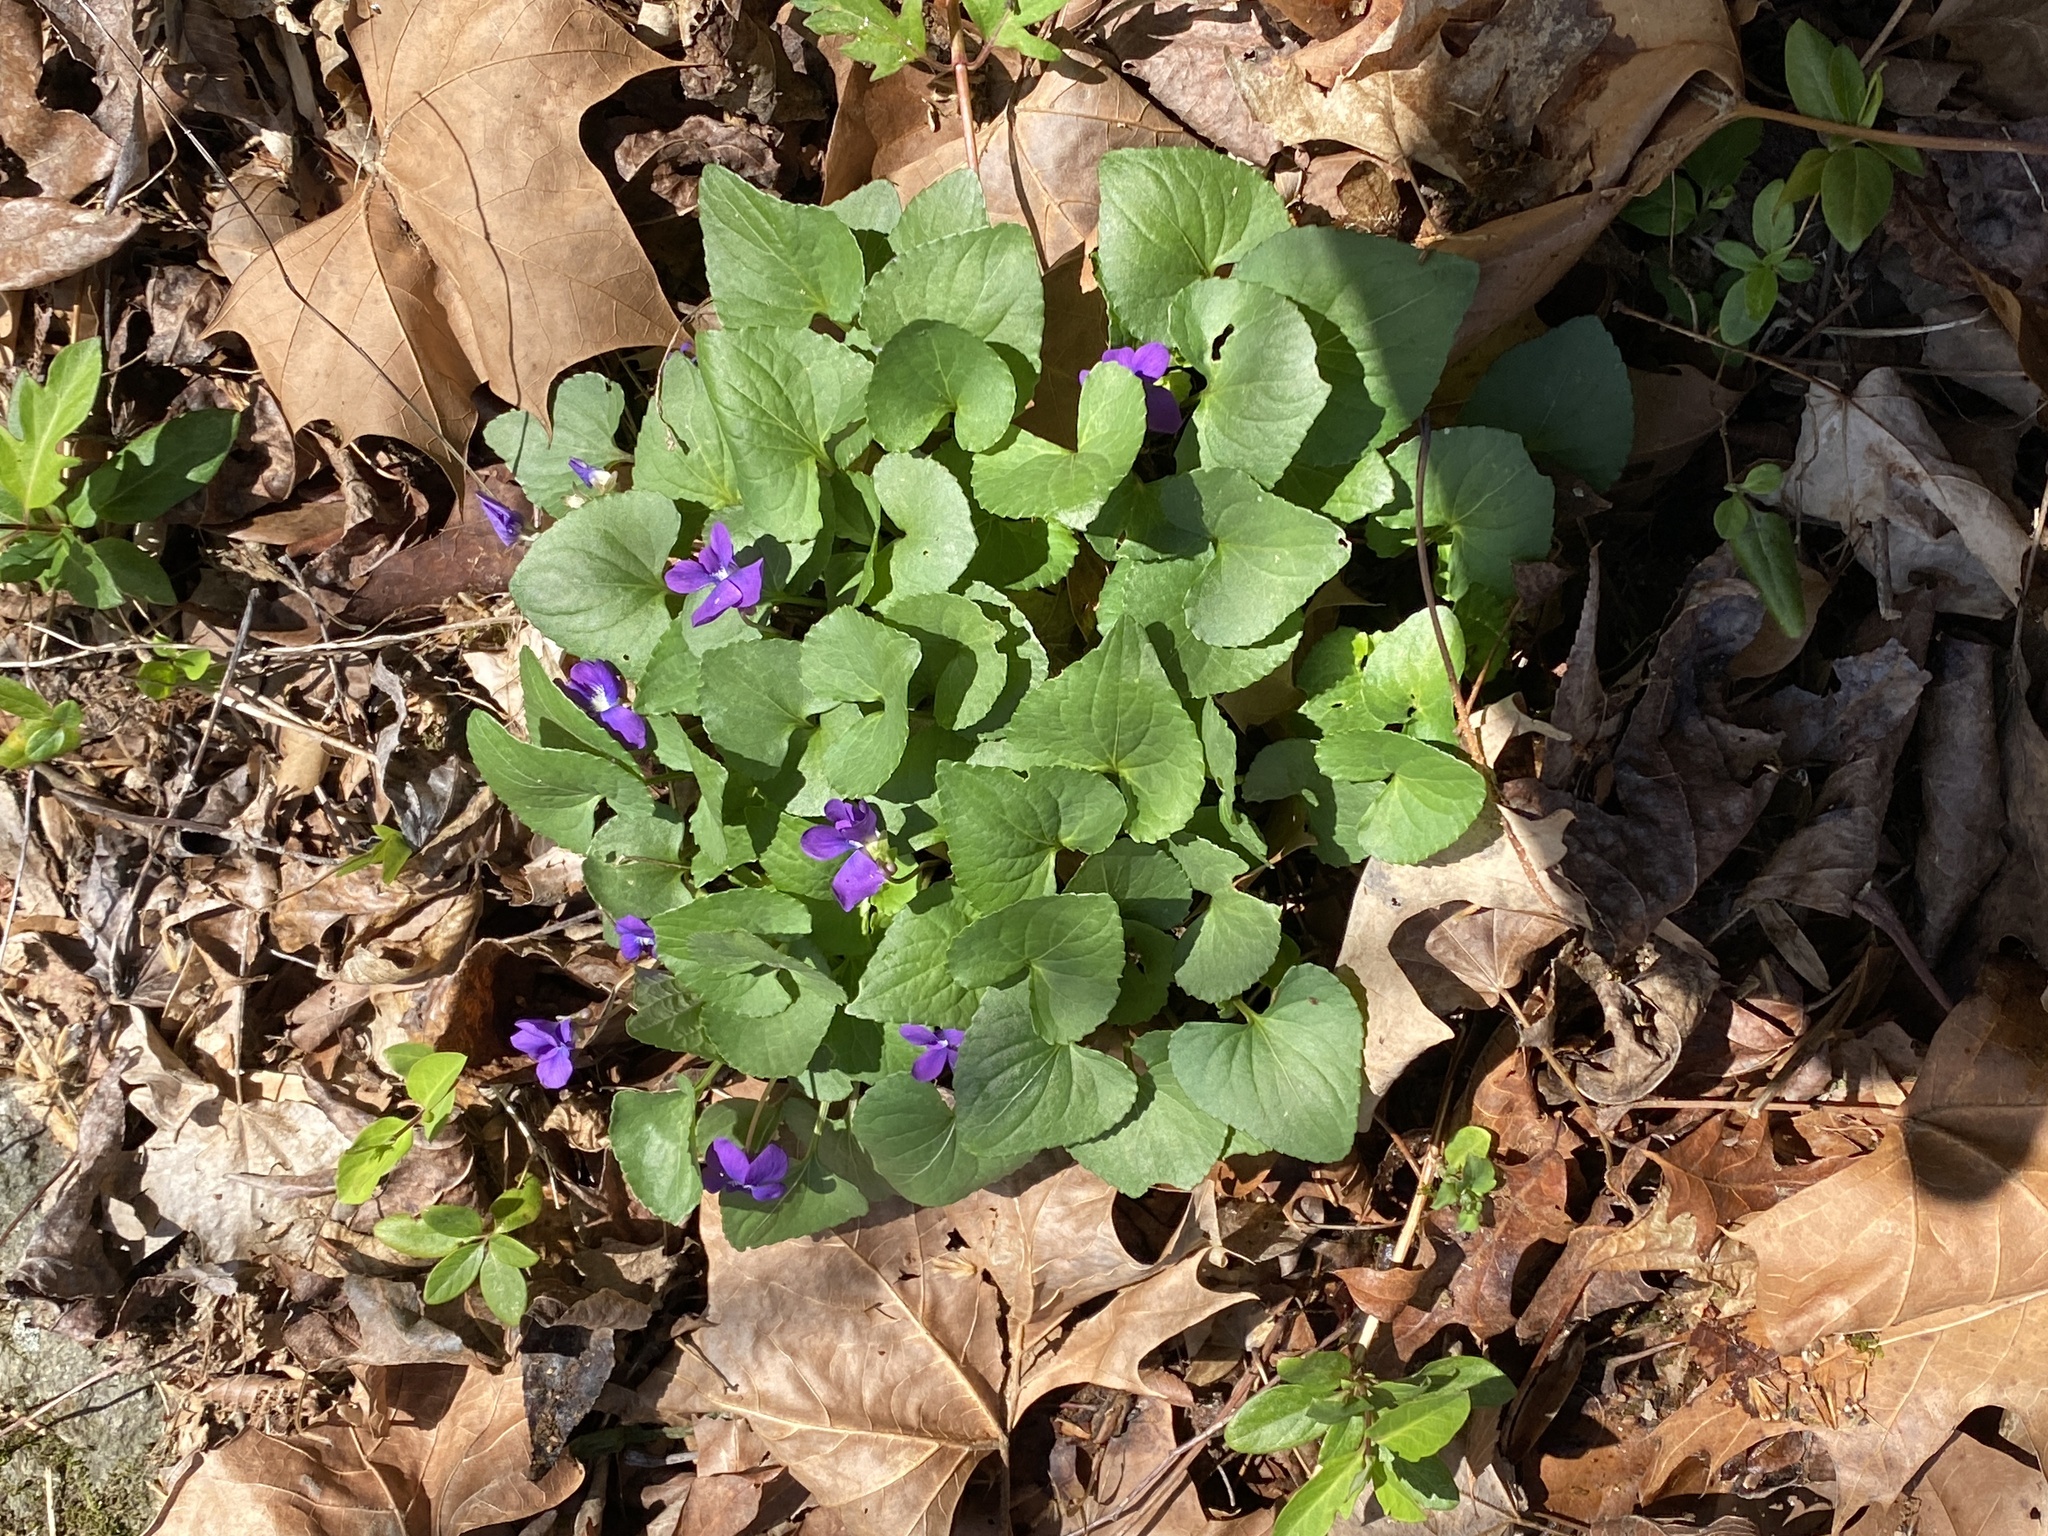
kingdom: Plantae
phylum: Tracheophyta
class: Magnoliopsida
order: Malpighiales
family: Violaceae
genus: Viola
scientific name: Viola sororia
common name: Dooryard violet
